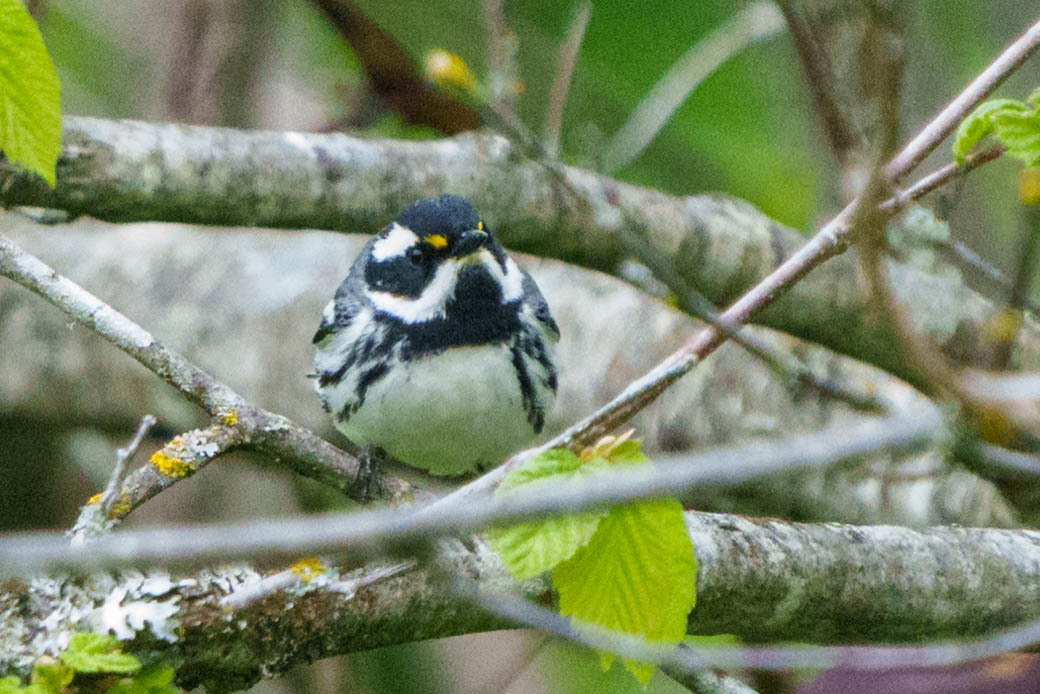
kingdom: Animalia
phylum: Chordata
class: Aves
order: Passeriformes
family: Parulidae
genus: Setophaga
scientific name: Setophaga nigrescens
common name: Black-throated gray warbler
